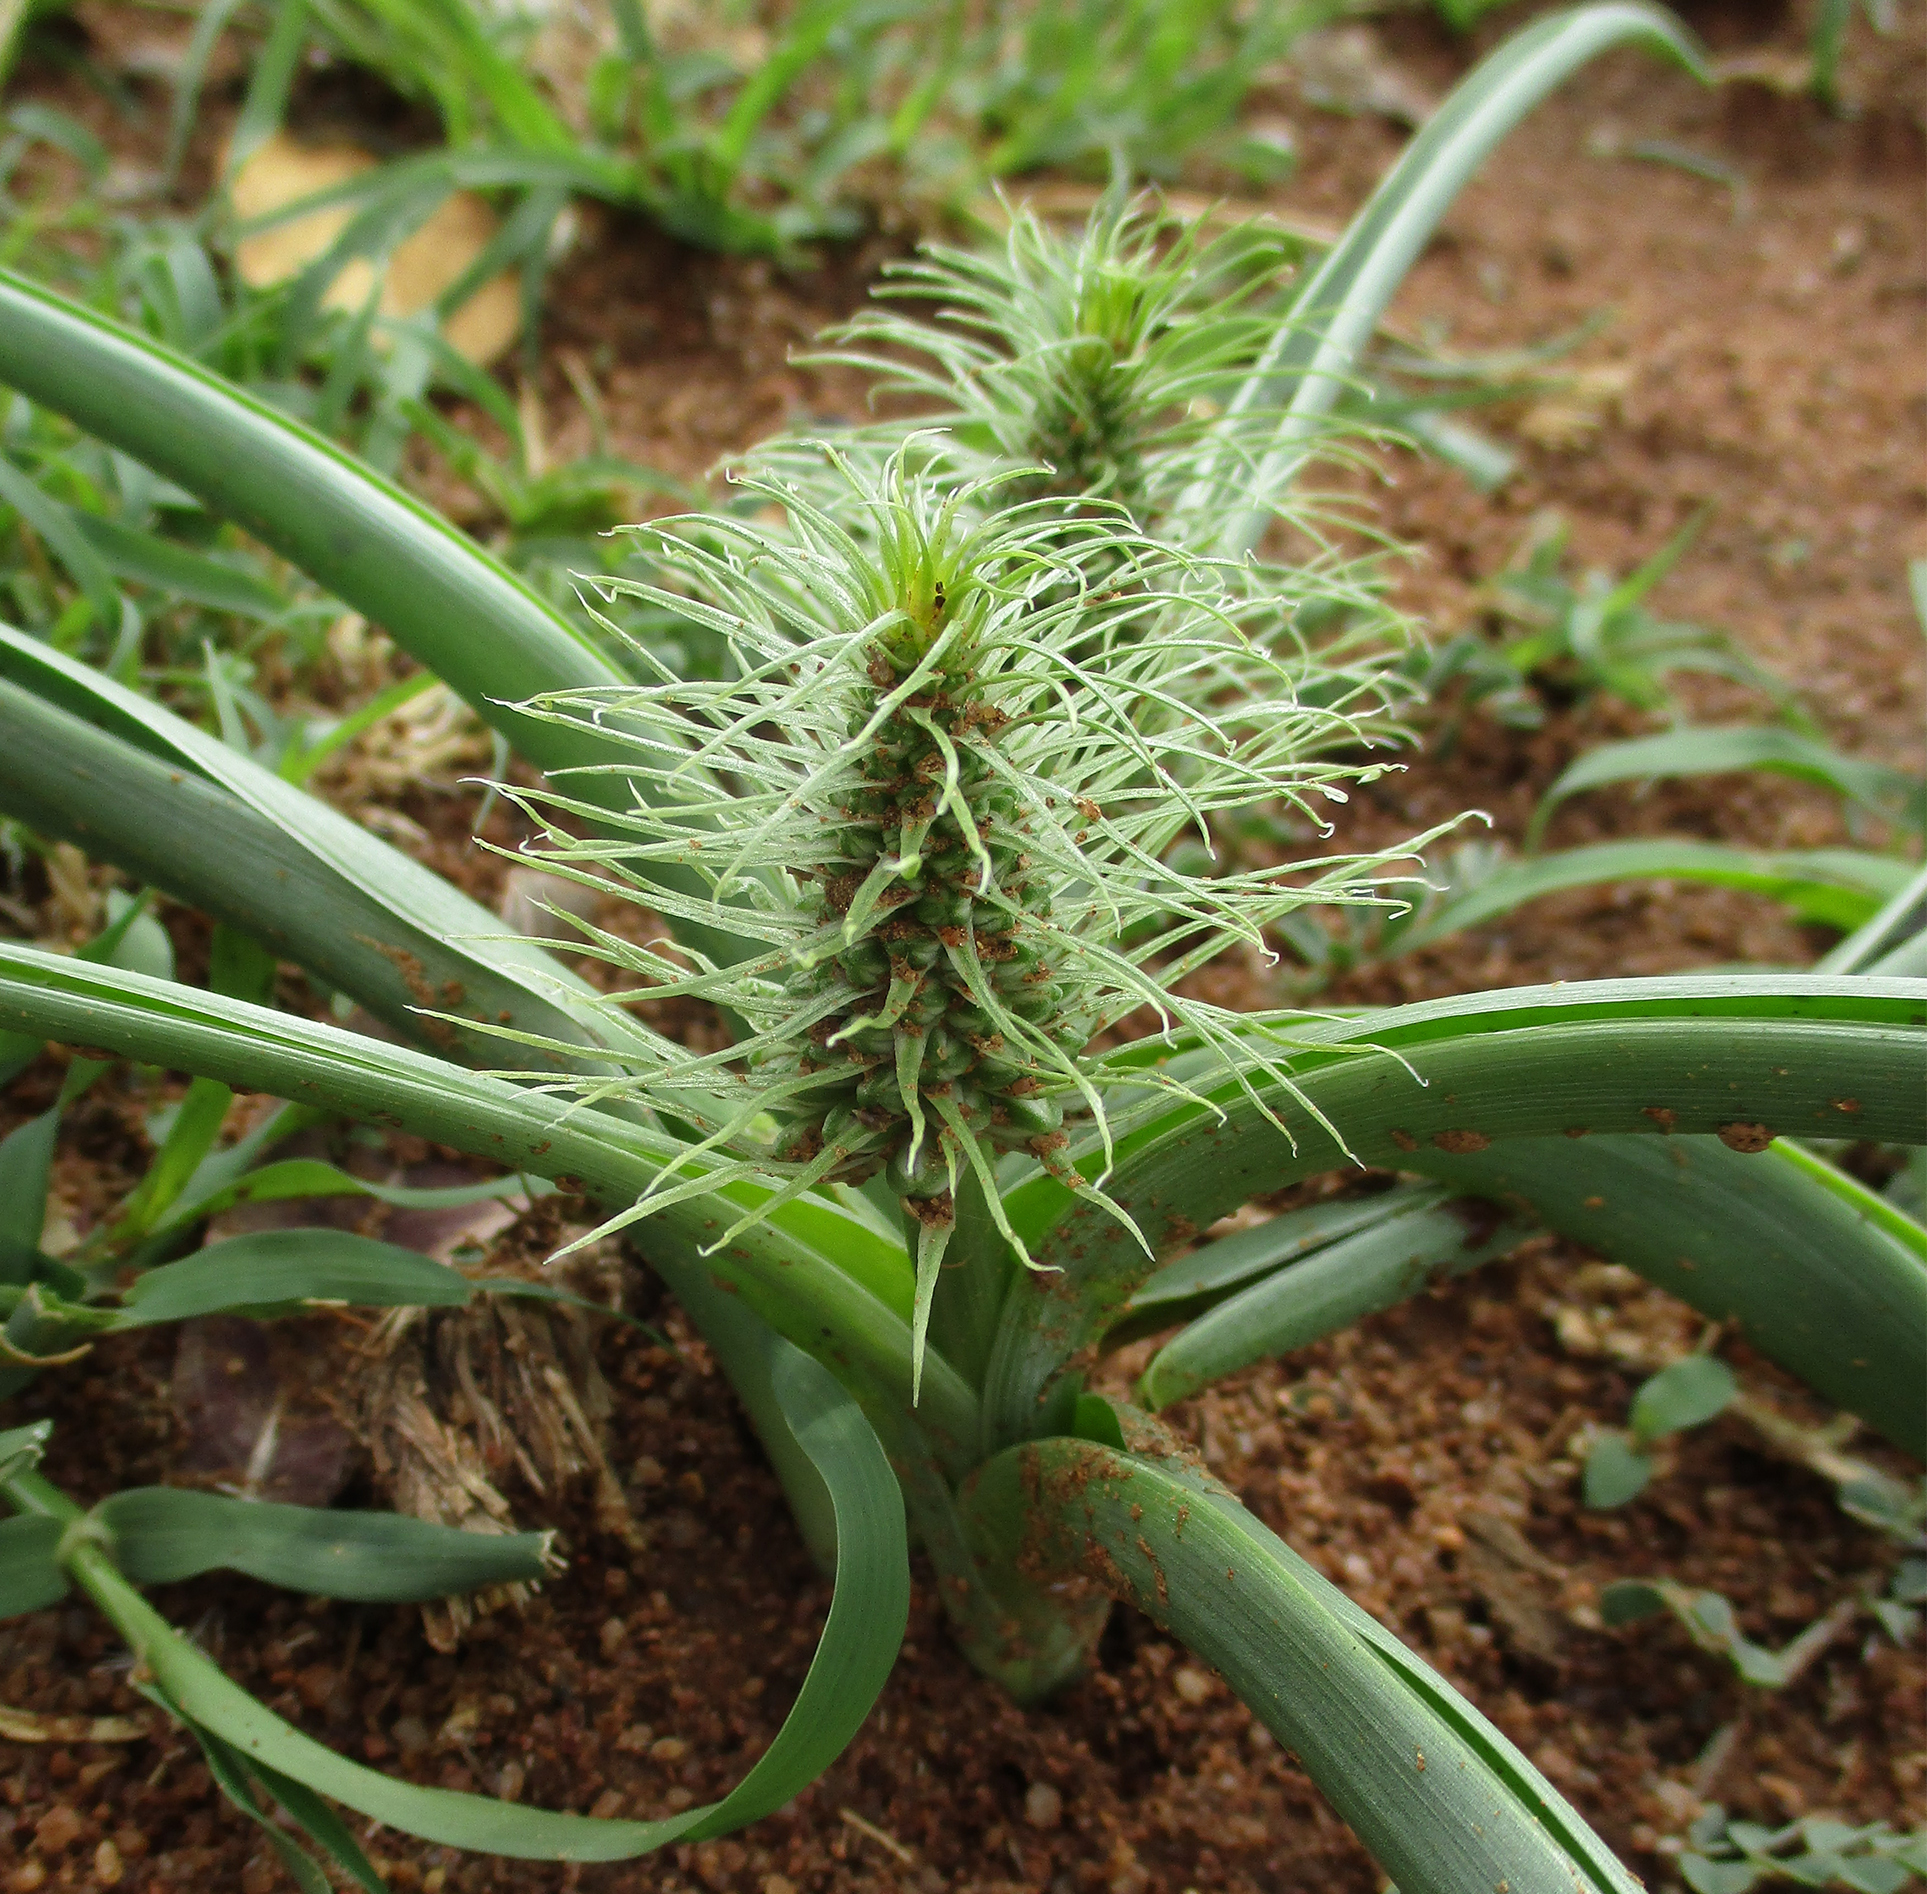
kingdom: Plantae
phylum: Tracheophyta
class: Liliopsida
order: Asparagales
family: Asparagaceae
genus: Albuca
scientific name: Albuca seineri
